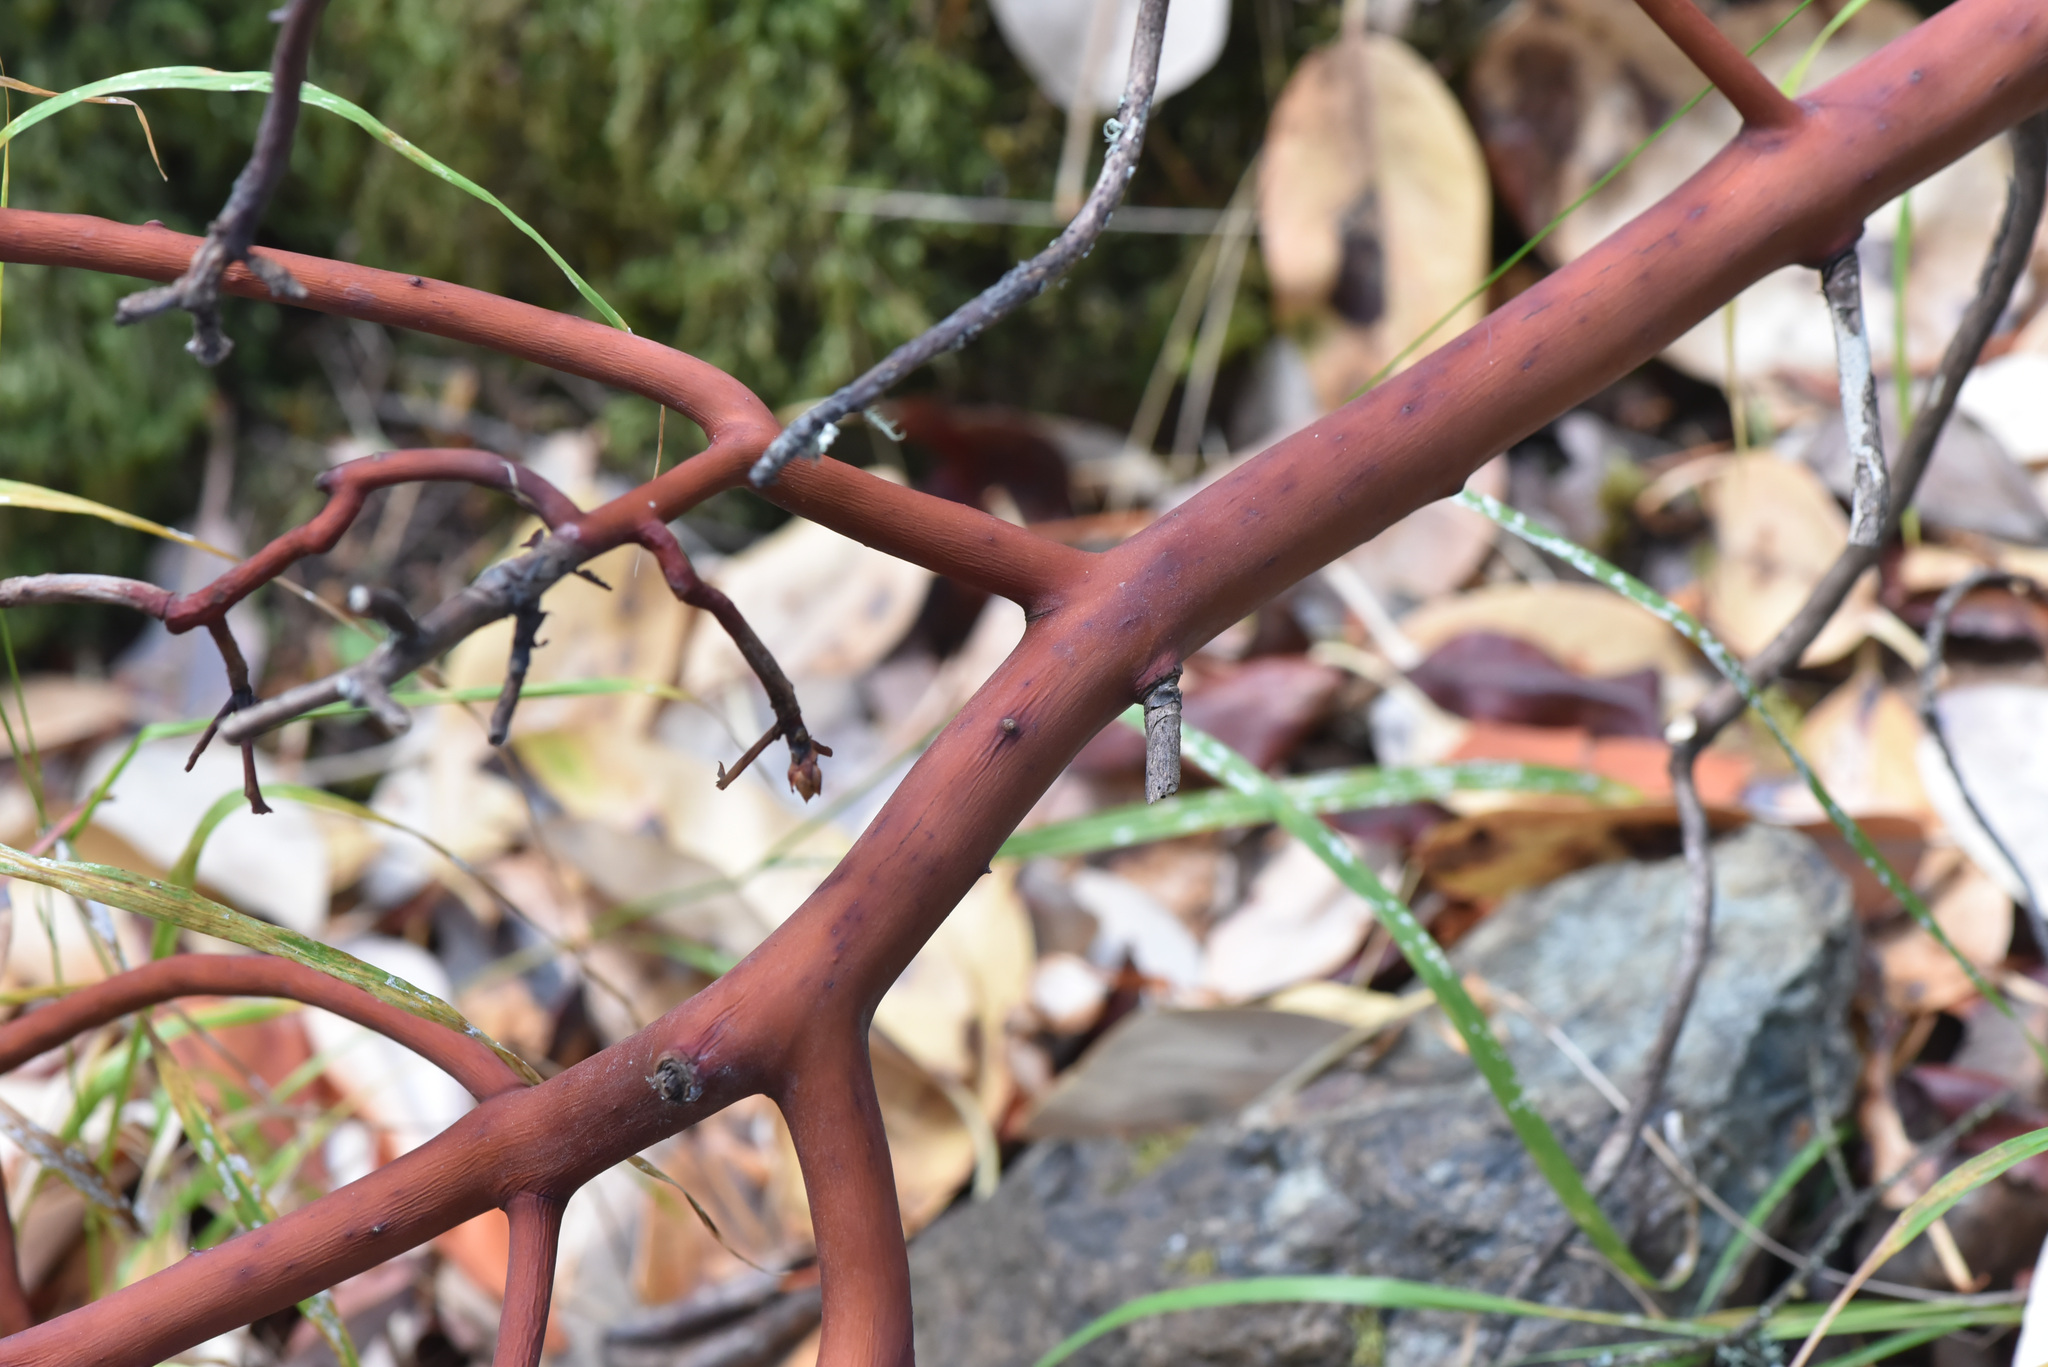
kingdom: Plantae
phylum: Tracheophyta
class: Magnoliopsida
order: Ericales
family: Ericaceae
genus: Arbutus
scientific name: Arbutus menziesii
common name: Pacific madrone
